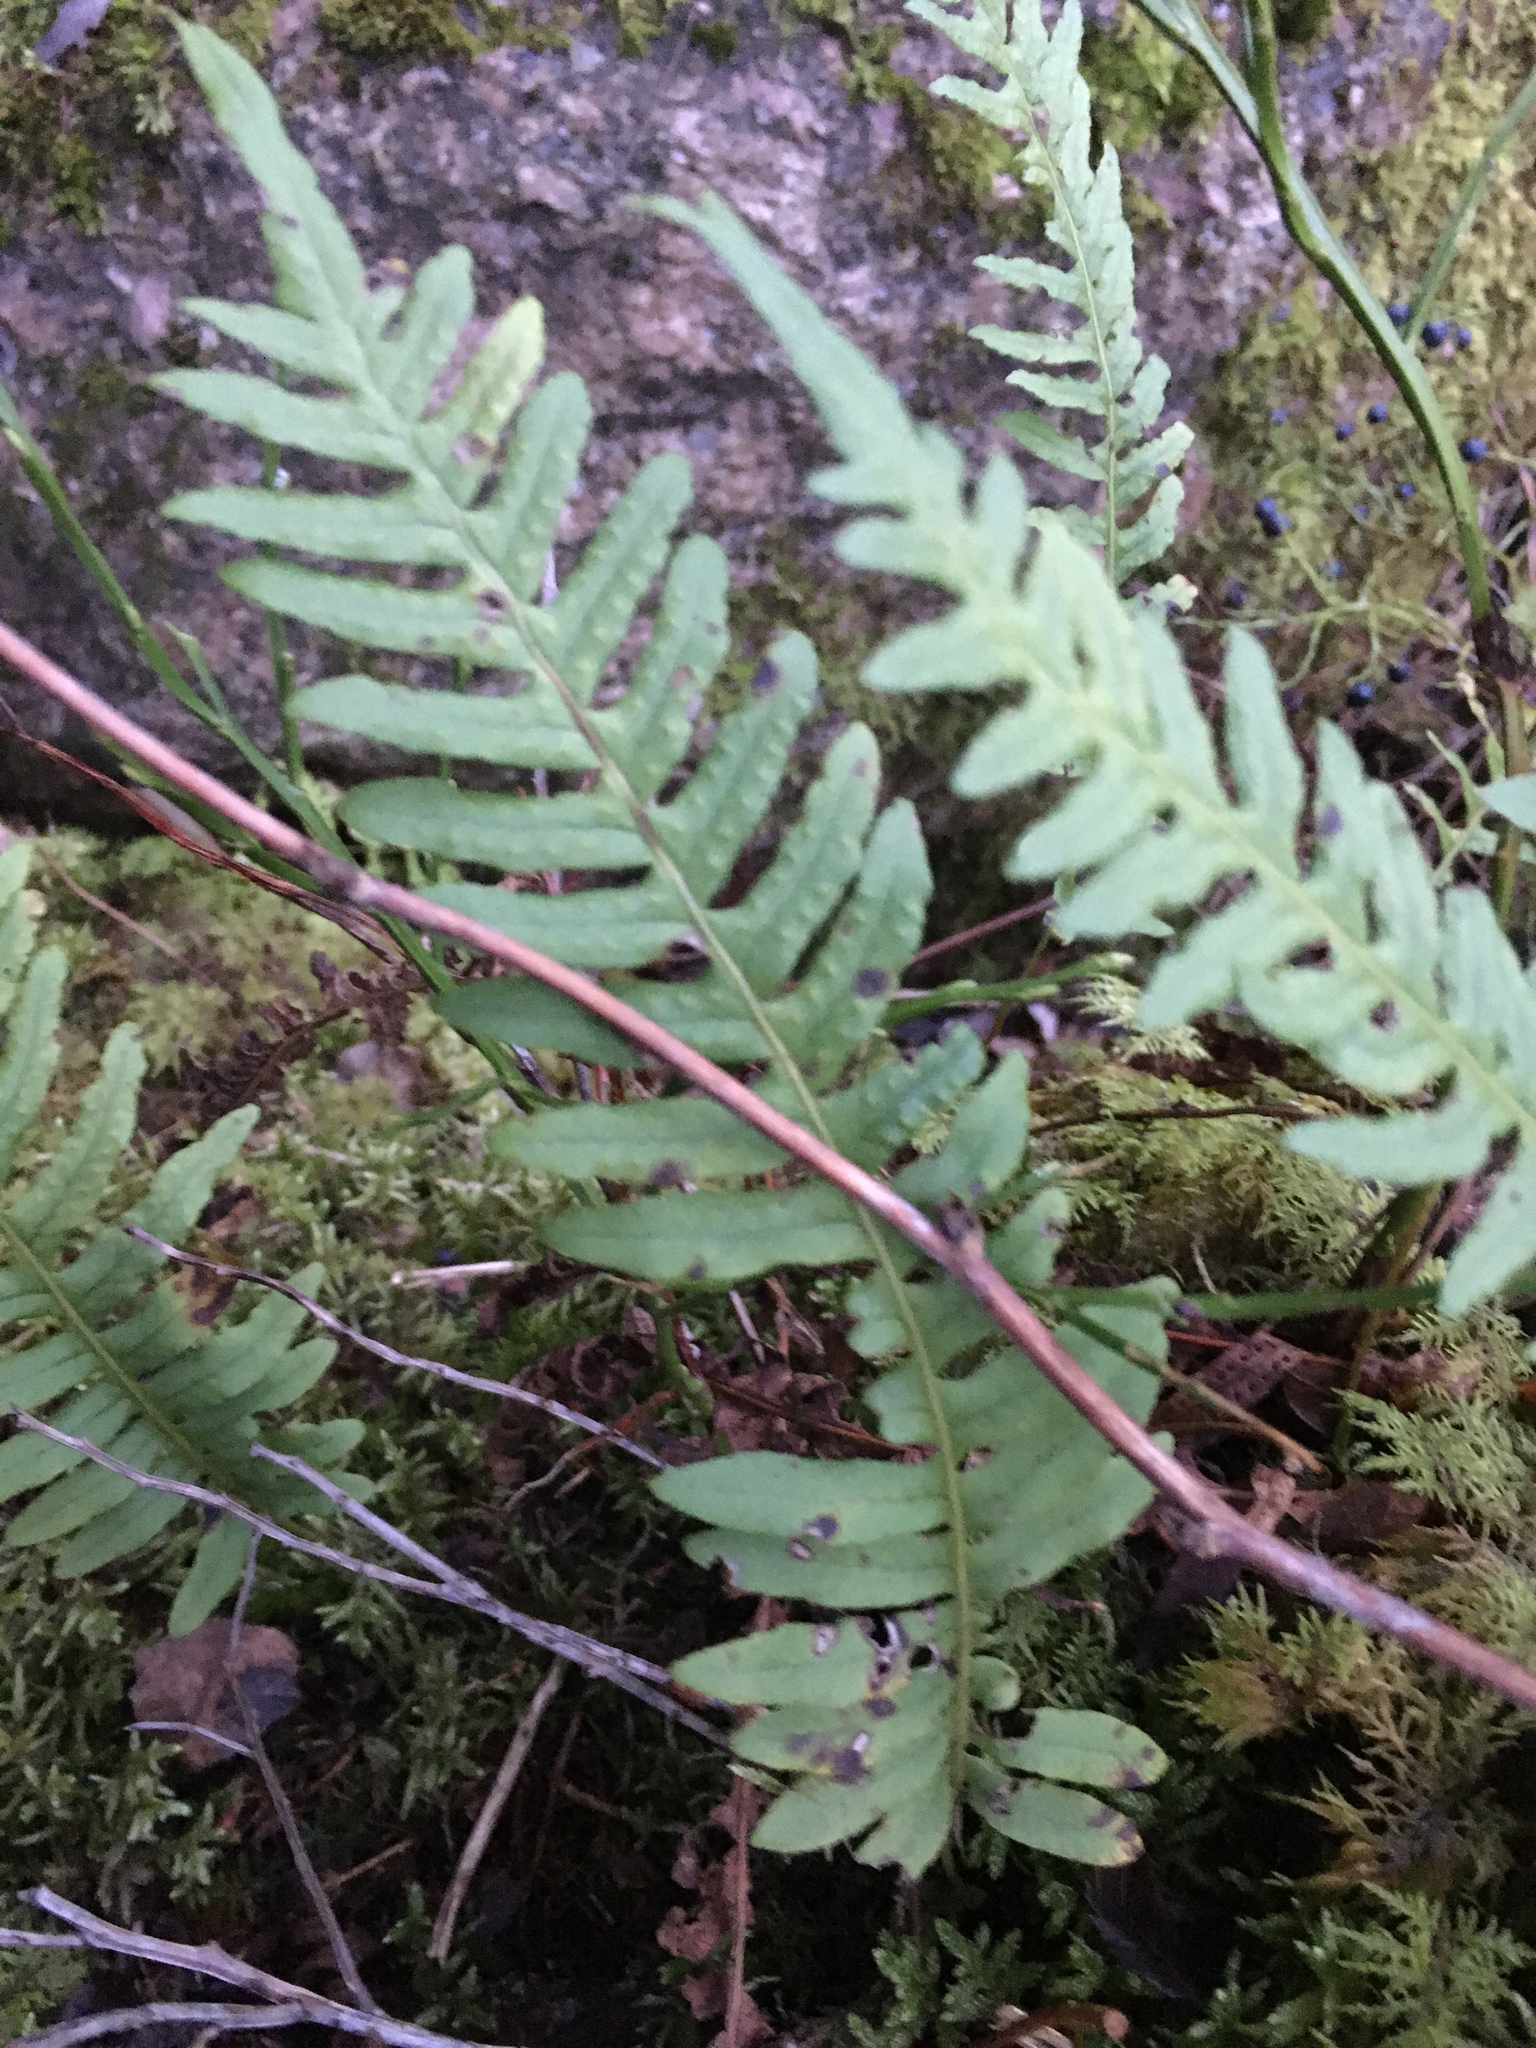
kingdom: Plantae
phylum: Tracheophyta
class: Polypodiopsida
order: Polypodiales
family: Polypodiaceae
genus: Polypodium
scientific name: Polypodium vulgare
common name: Common polypody
